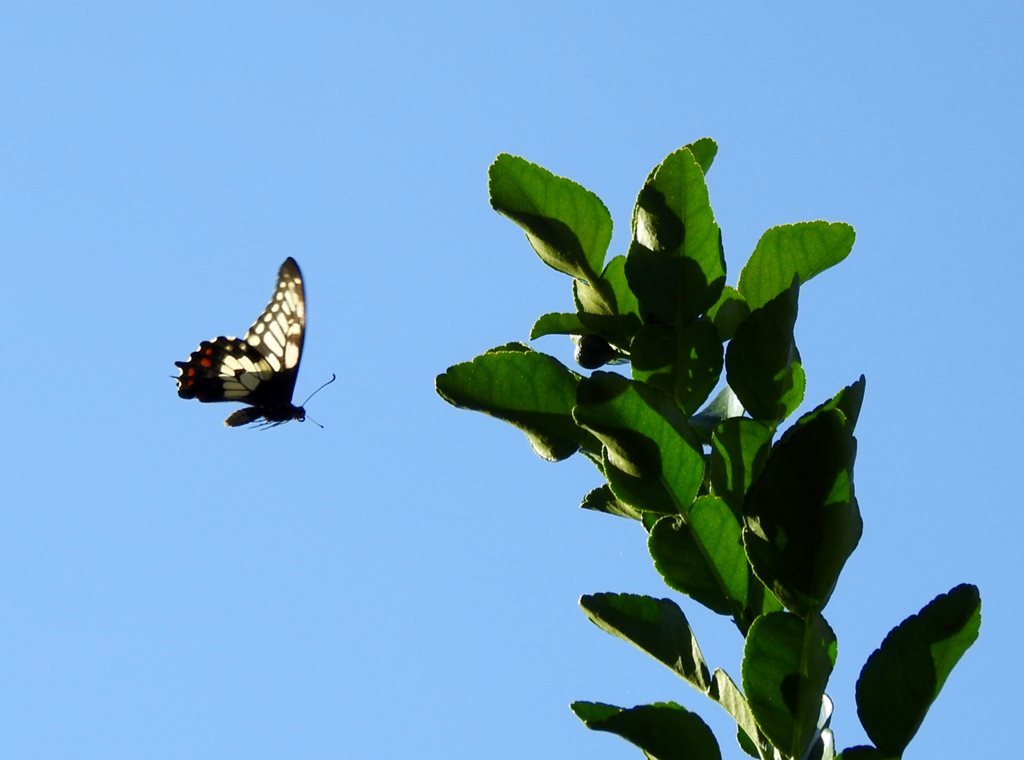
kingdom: Animalia
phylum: Arthropoda
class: Insecta
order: Lepidoptera
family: Papilionidae
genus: Papilio
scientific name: Papilio anactus
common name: Dingy swallowtail
